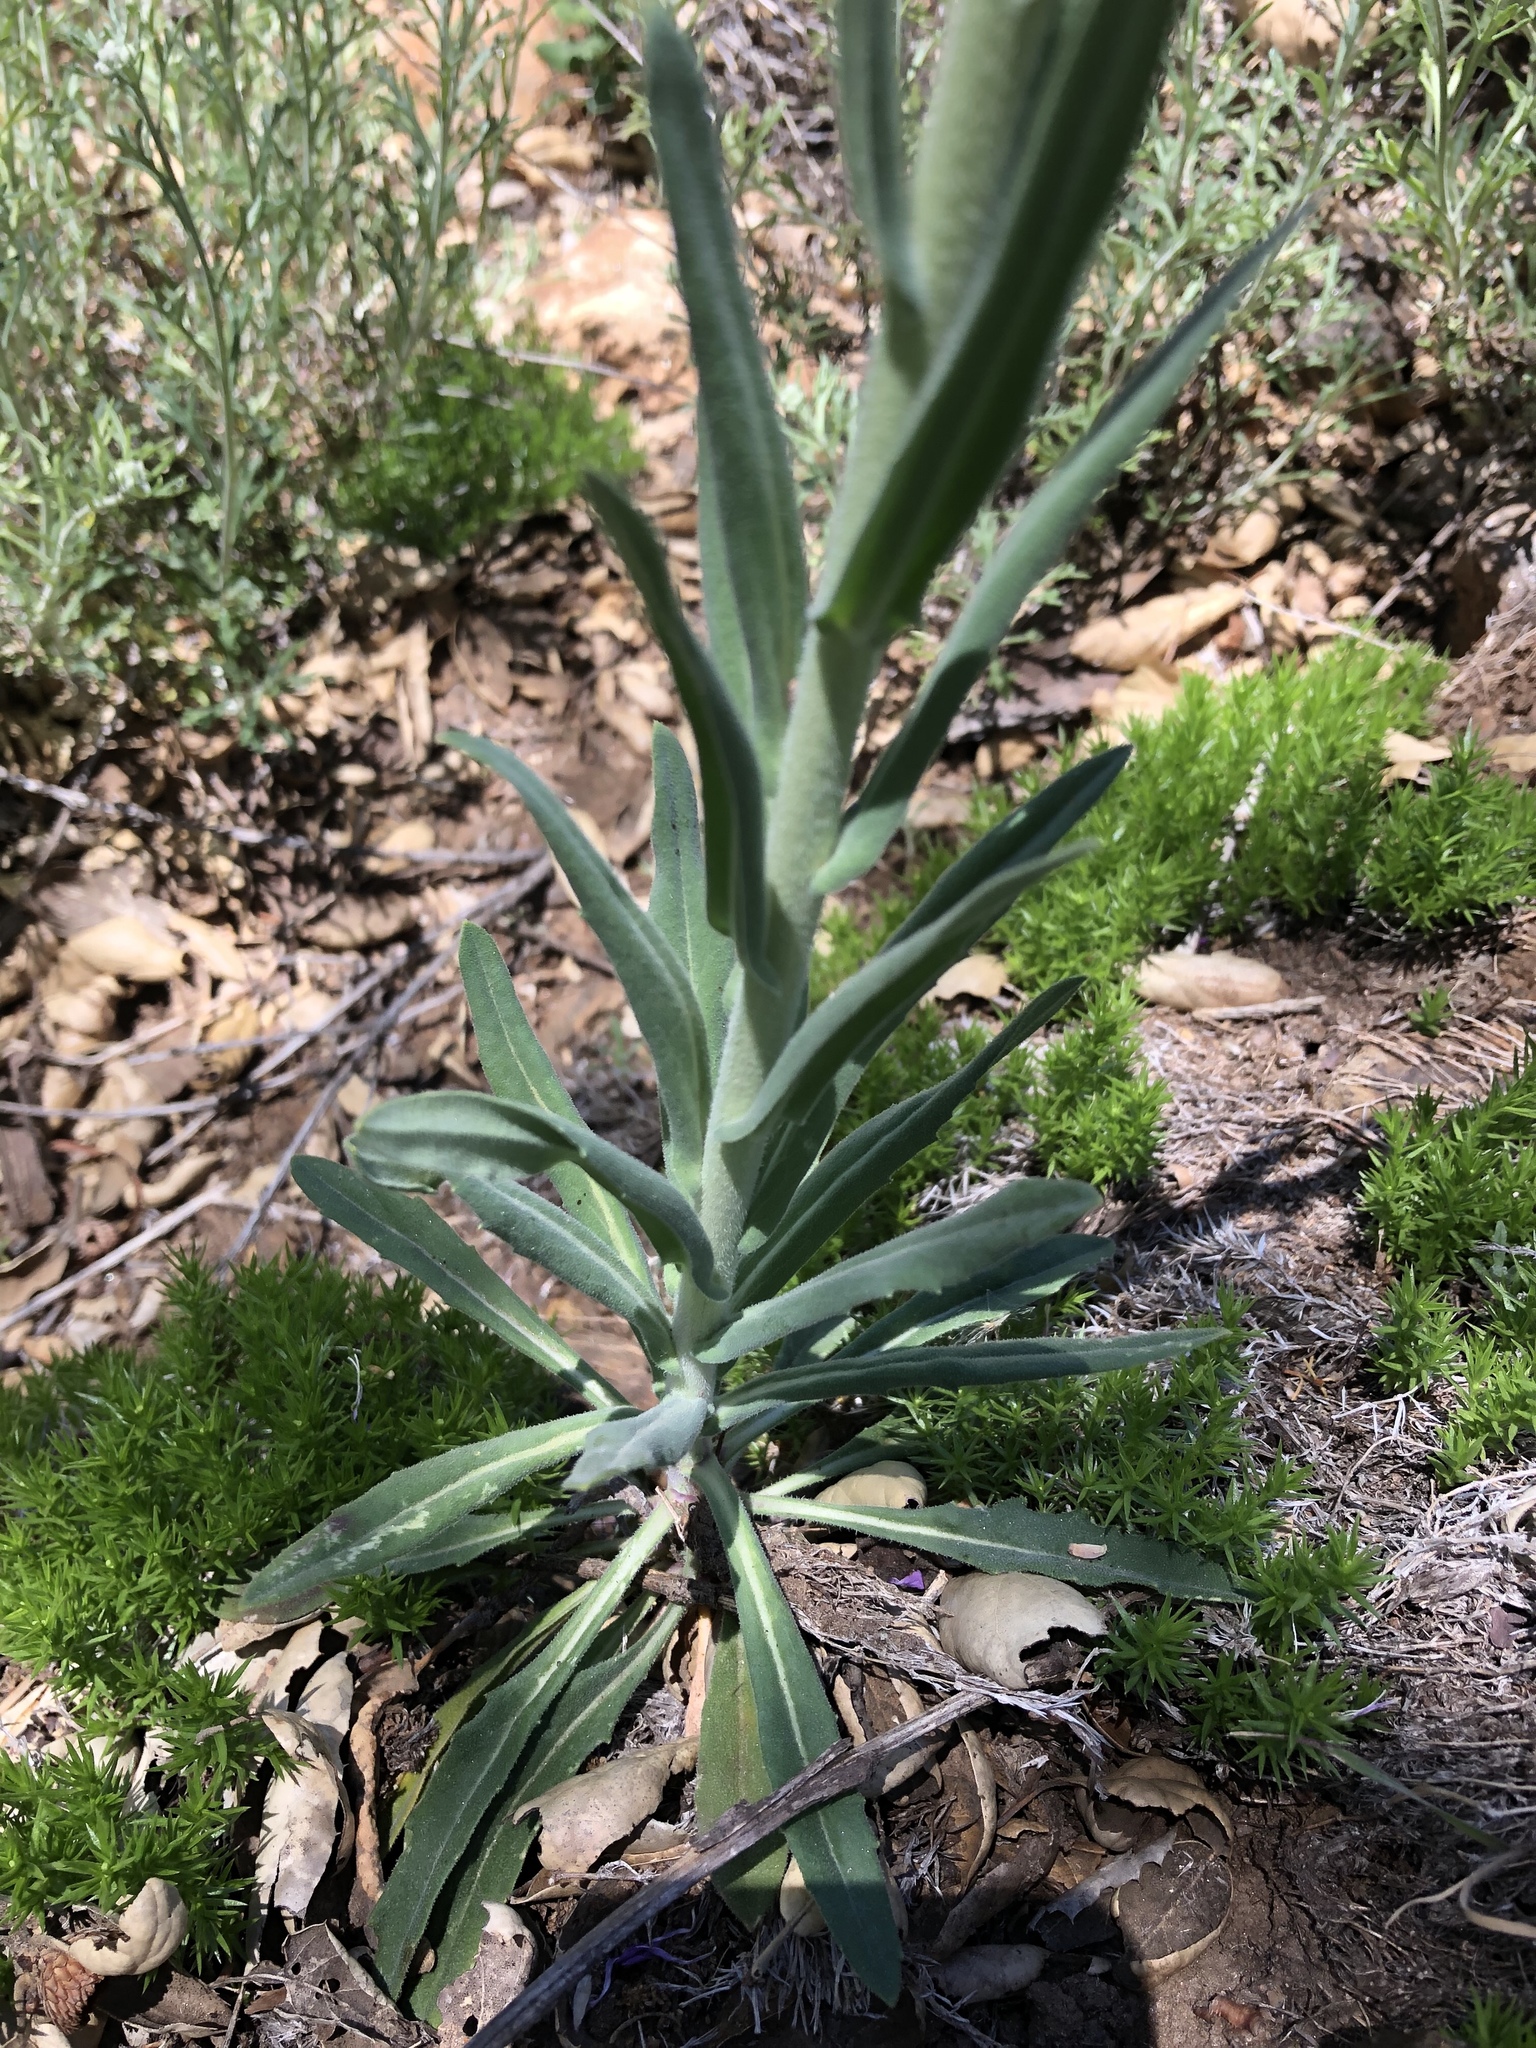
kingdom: Plantae
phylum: Tracheophyta
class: Magnoliopsida
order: Brassicales
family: Brassicaceae
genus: Boechera
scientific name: Boechera californica
